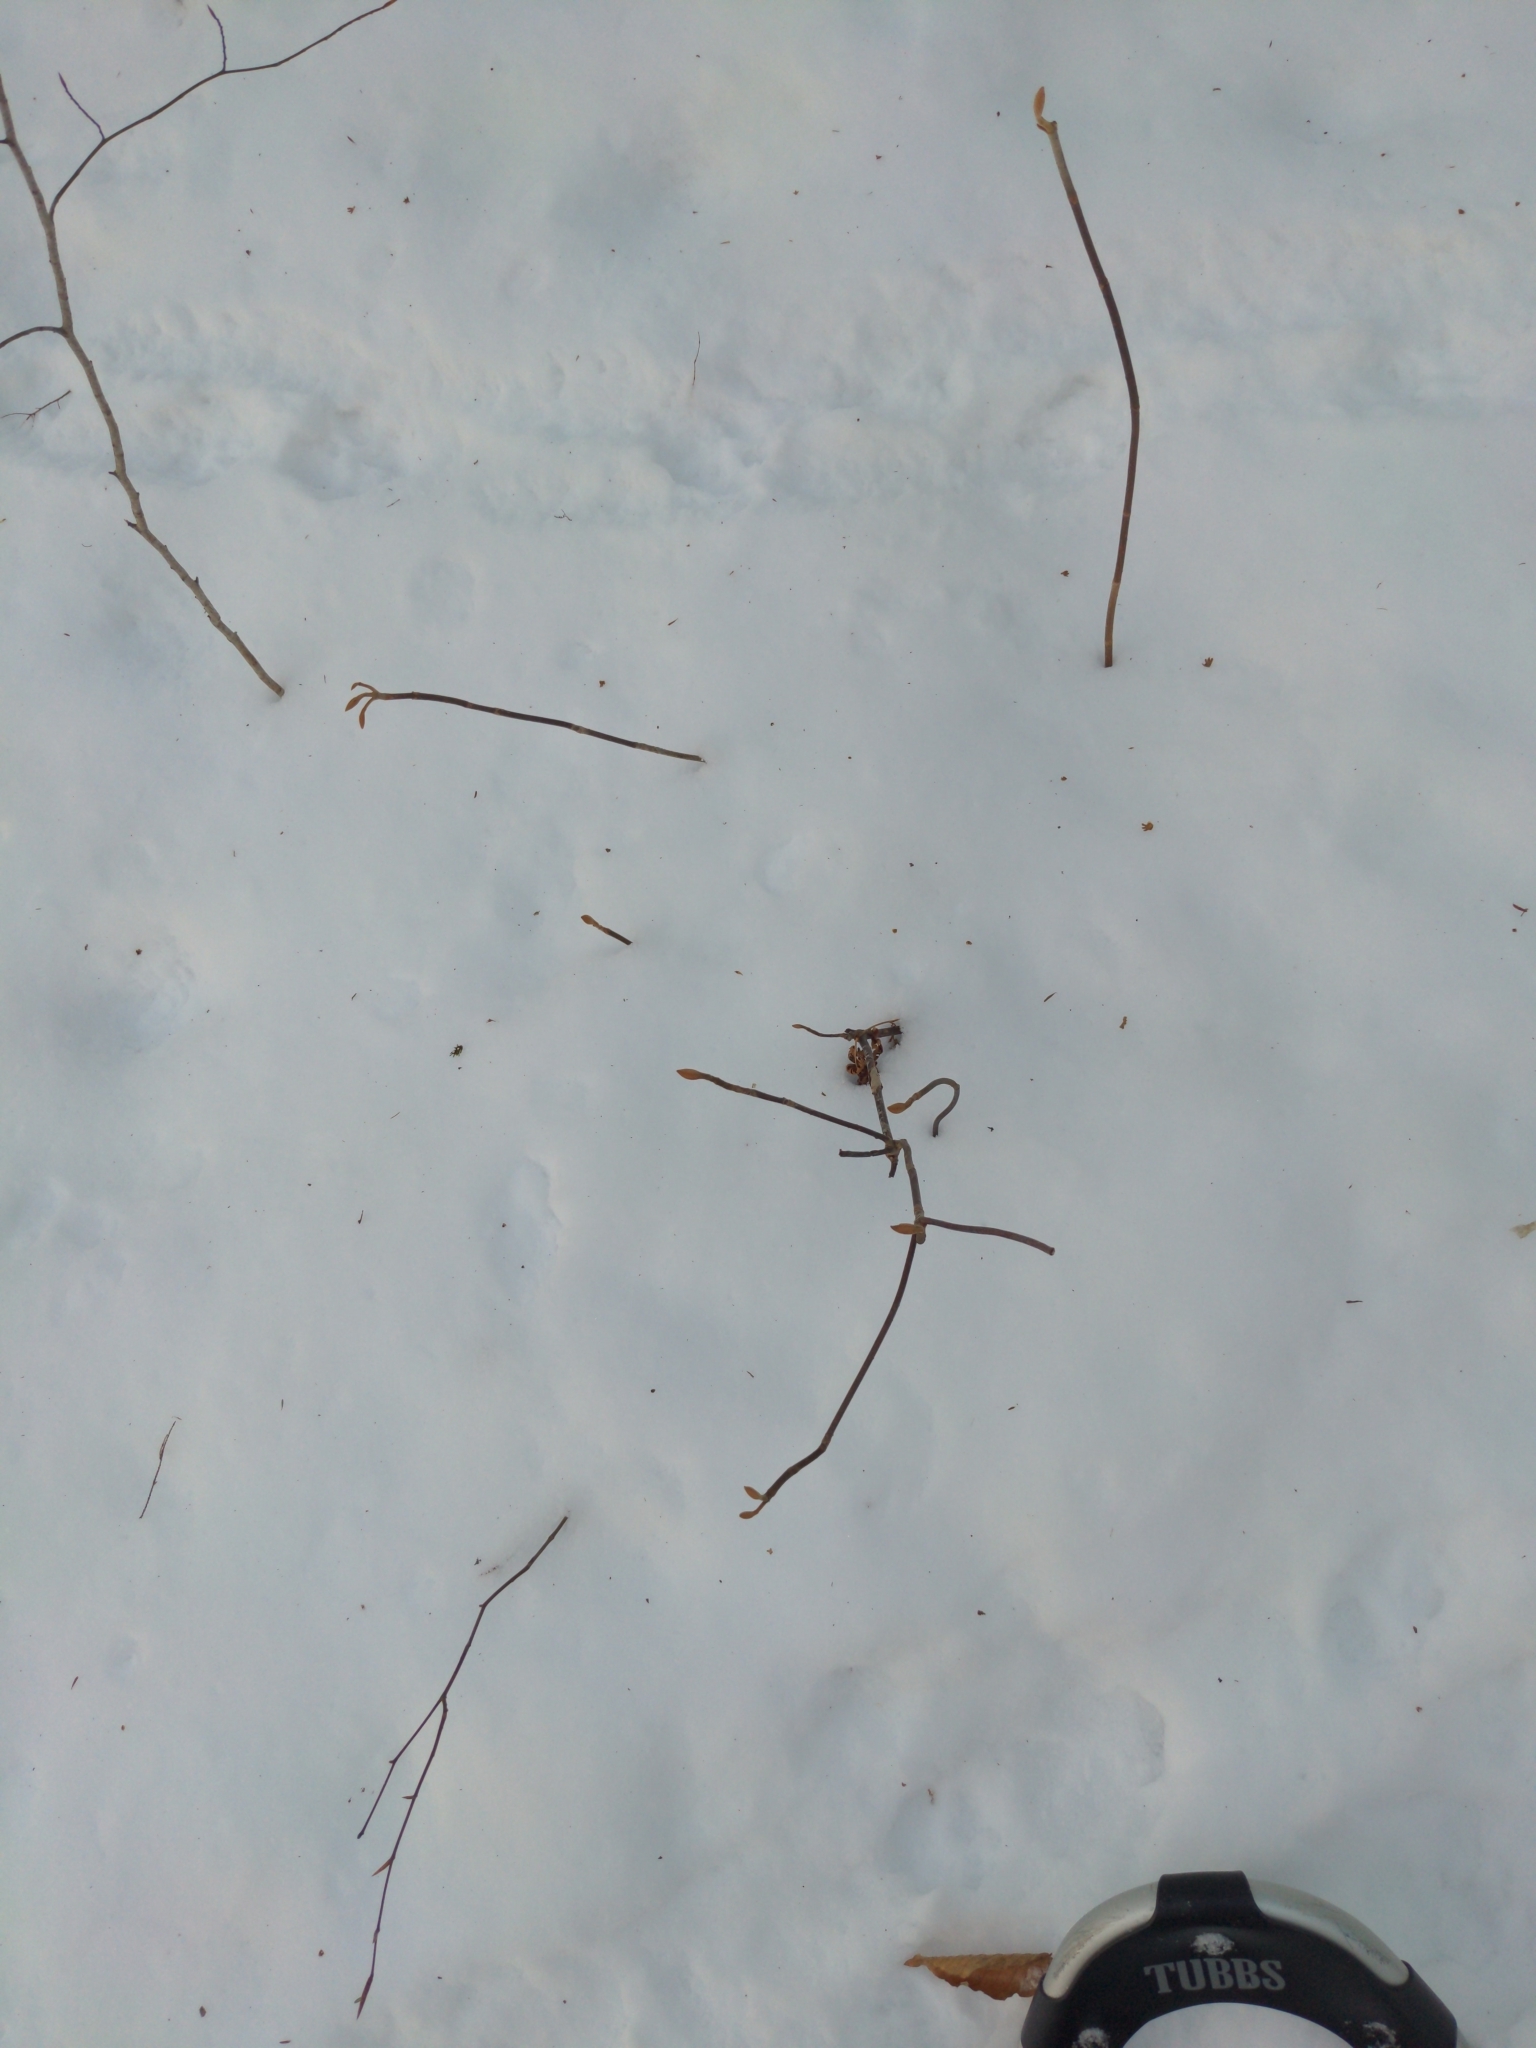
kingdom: Plantae
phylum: Tracheophyta
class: Magnoliopsida
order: Dipsacales
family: Viburnaceae
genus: Viburnum
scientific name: Viburnum lantanoides
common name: Hobblebush
